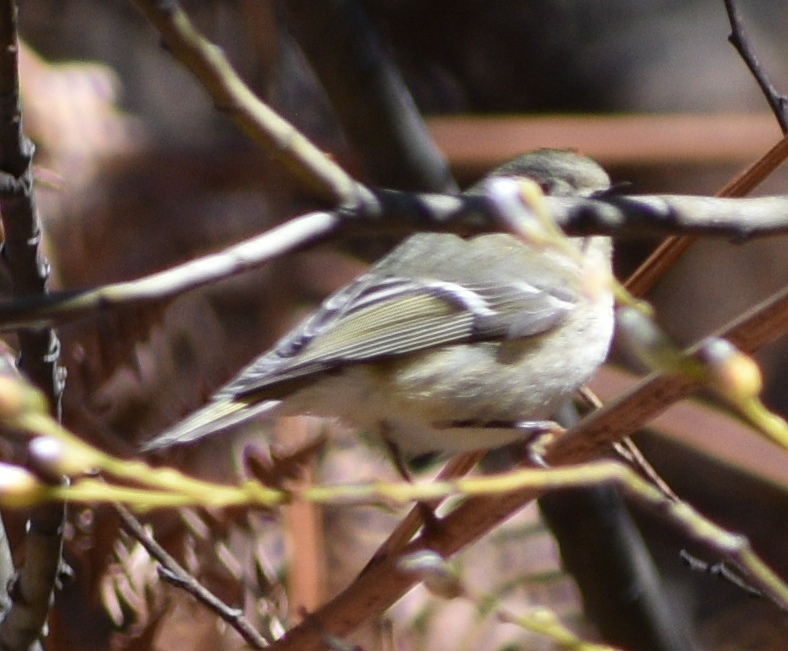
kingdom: Animalia
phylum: Chordata
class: Aves
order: Passeriformes
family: Regulidae
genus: Regulus
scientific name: Regulus calendula
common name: Ruby-crowned kinglet
